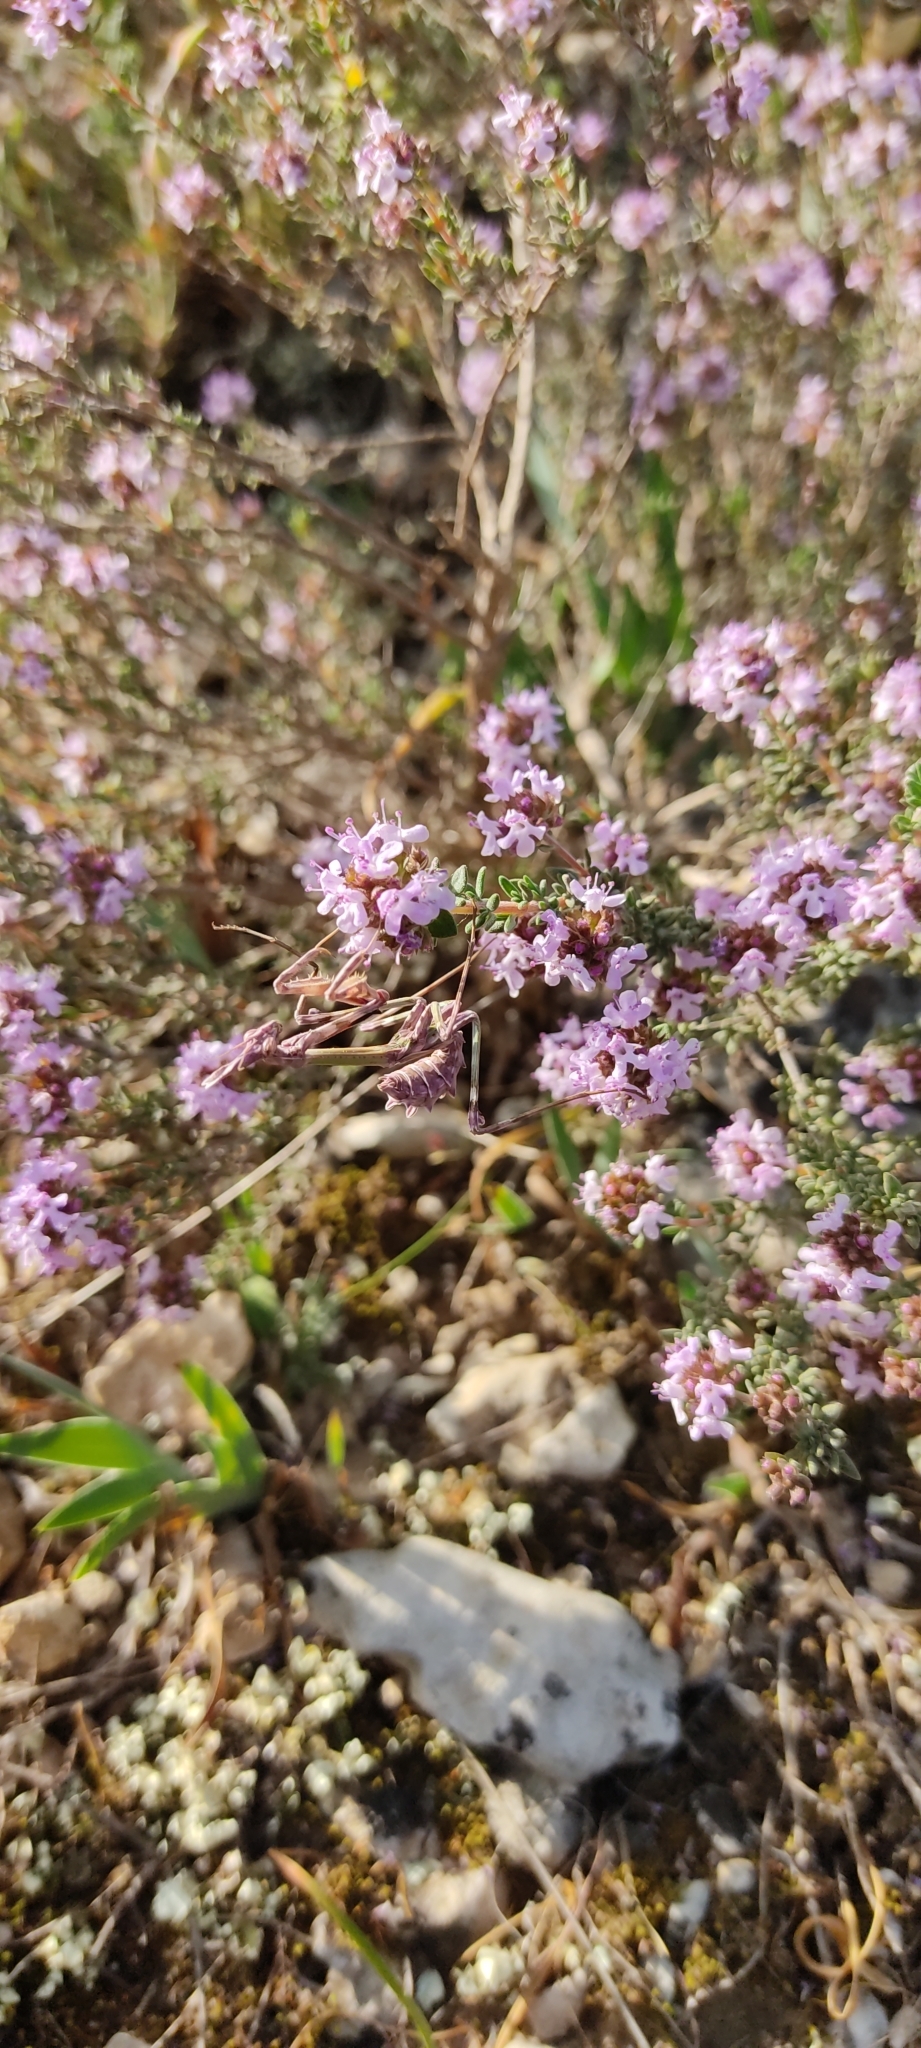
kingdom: Animalia
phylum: Arthropoda
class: Insecta
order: Mantodea
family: Empusidae
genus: Empusa
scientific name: Empusa pennata
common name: Conehead mantis
